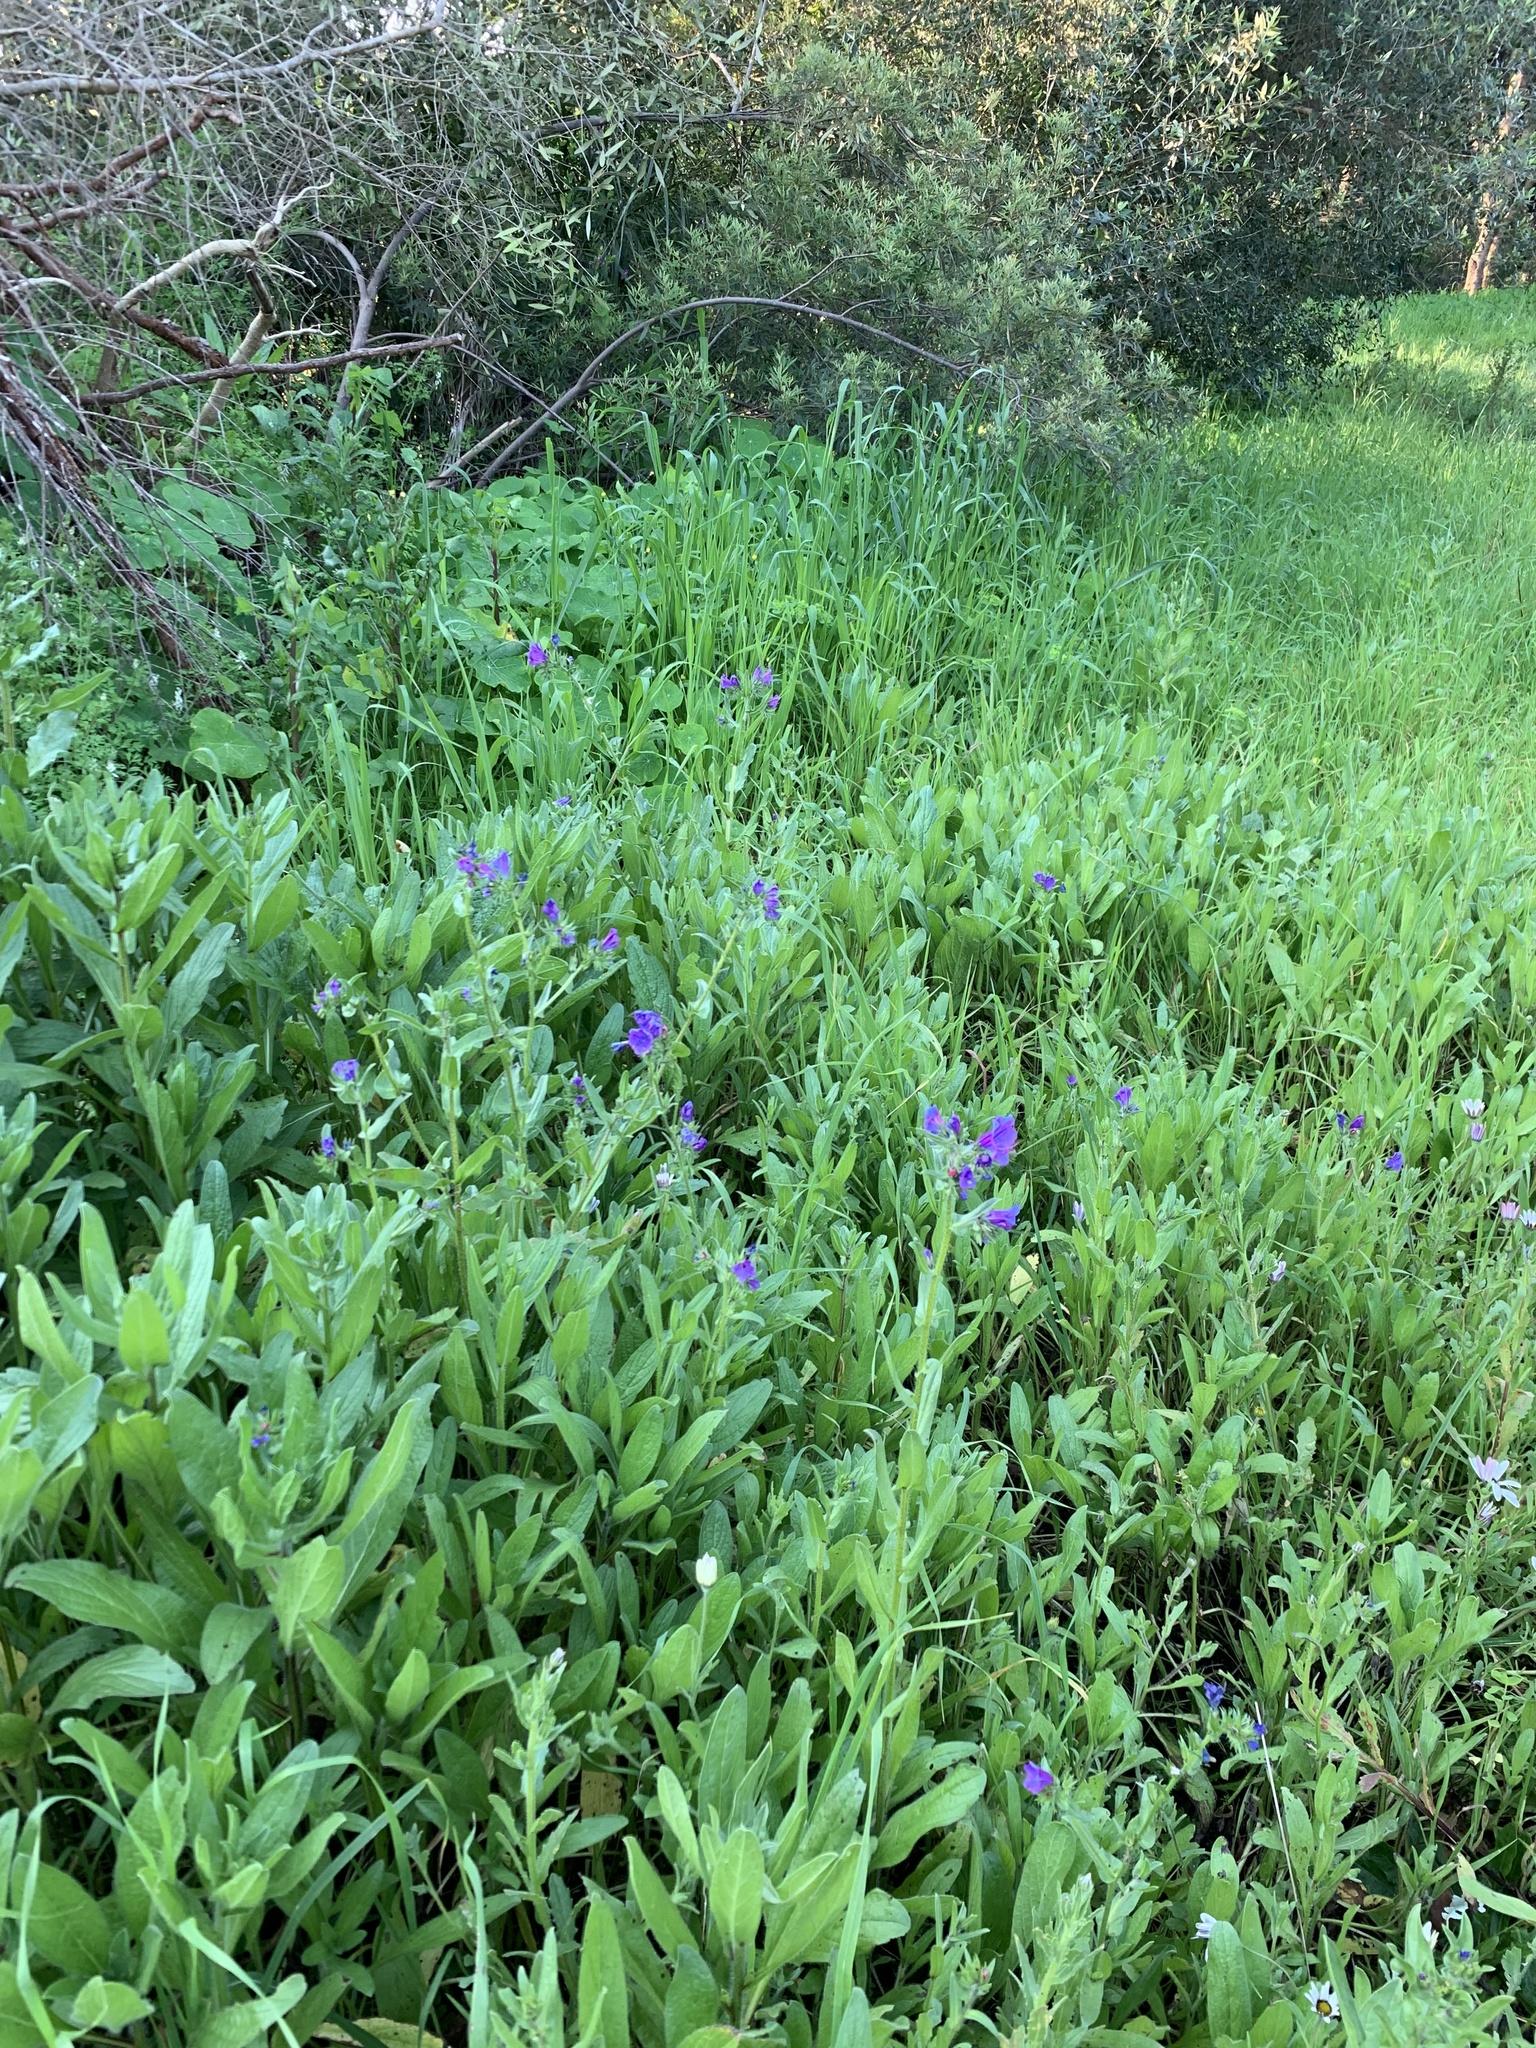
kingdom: Plantae
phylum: Tracheophyta
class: Magnoliopsida
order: Boraginales
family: Boraginaceae
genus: Echium
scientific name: Echium plantagineum
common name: Purple viper's-bugloss
